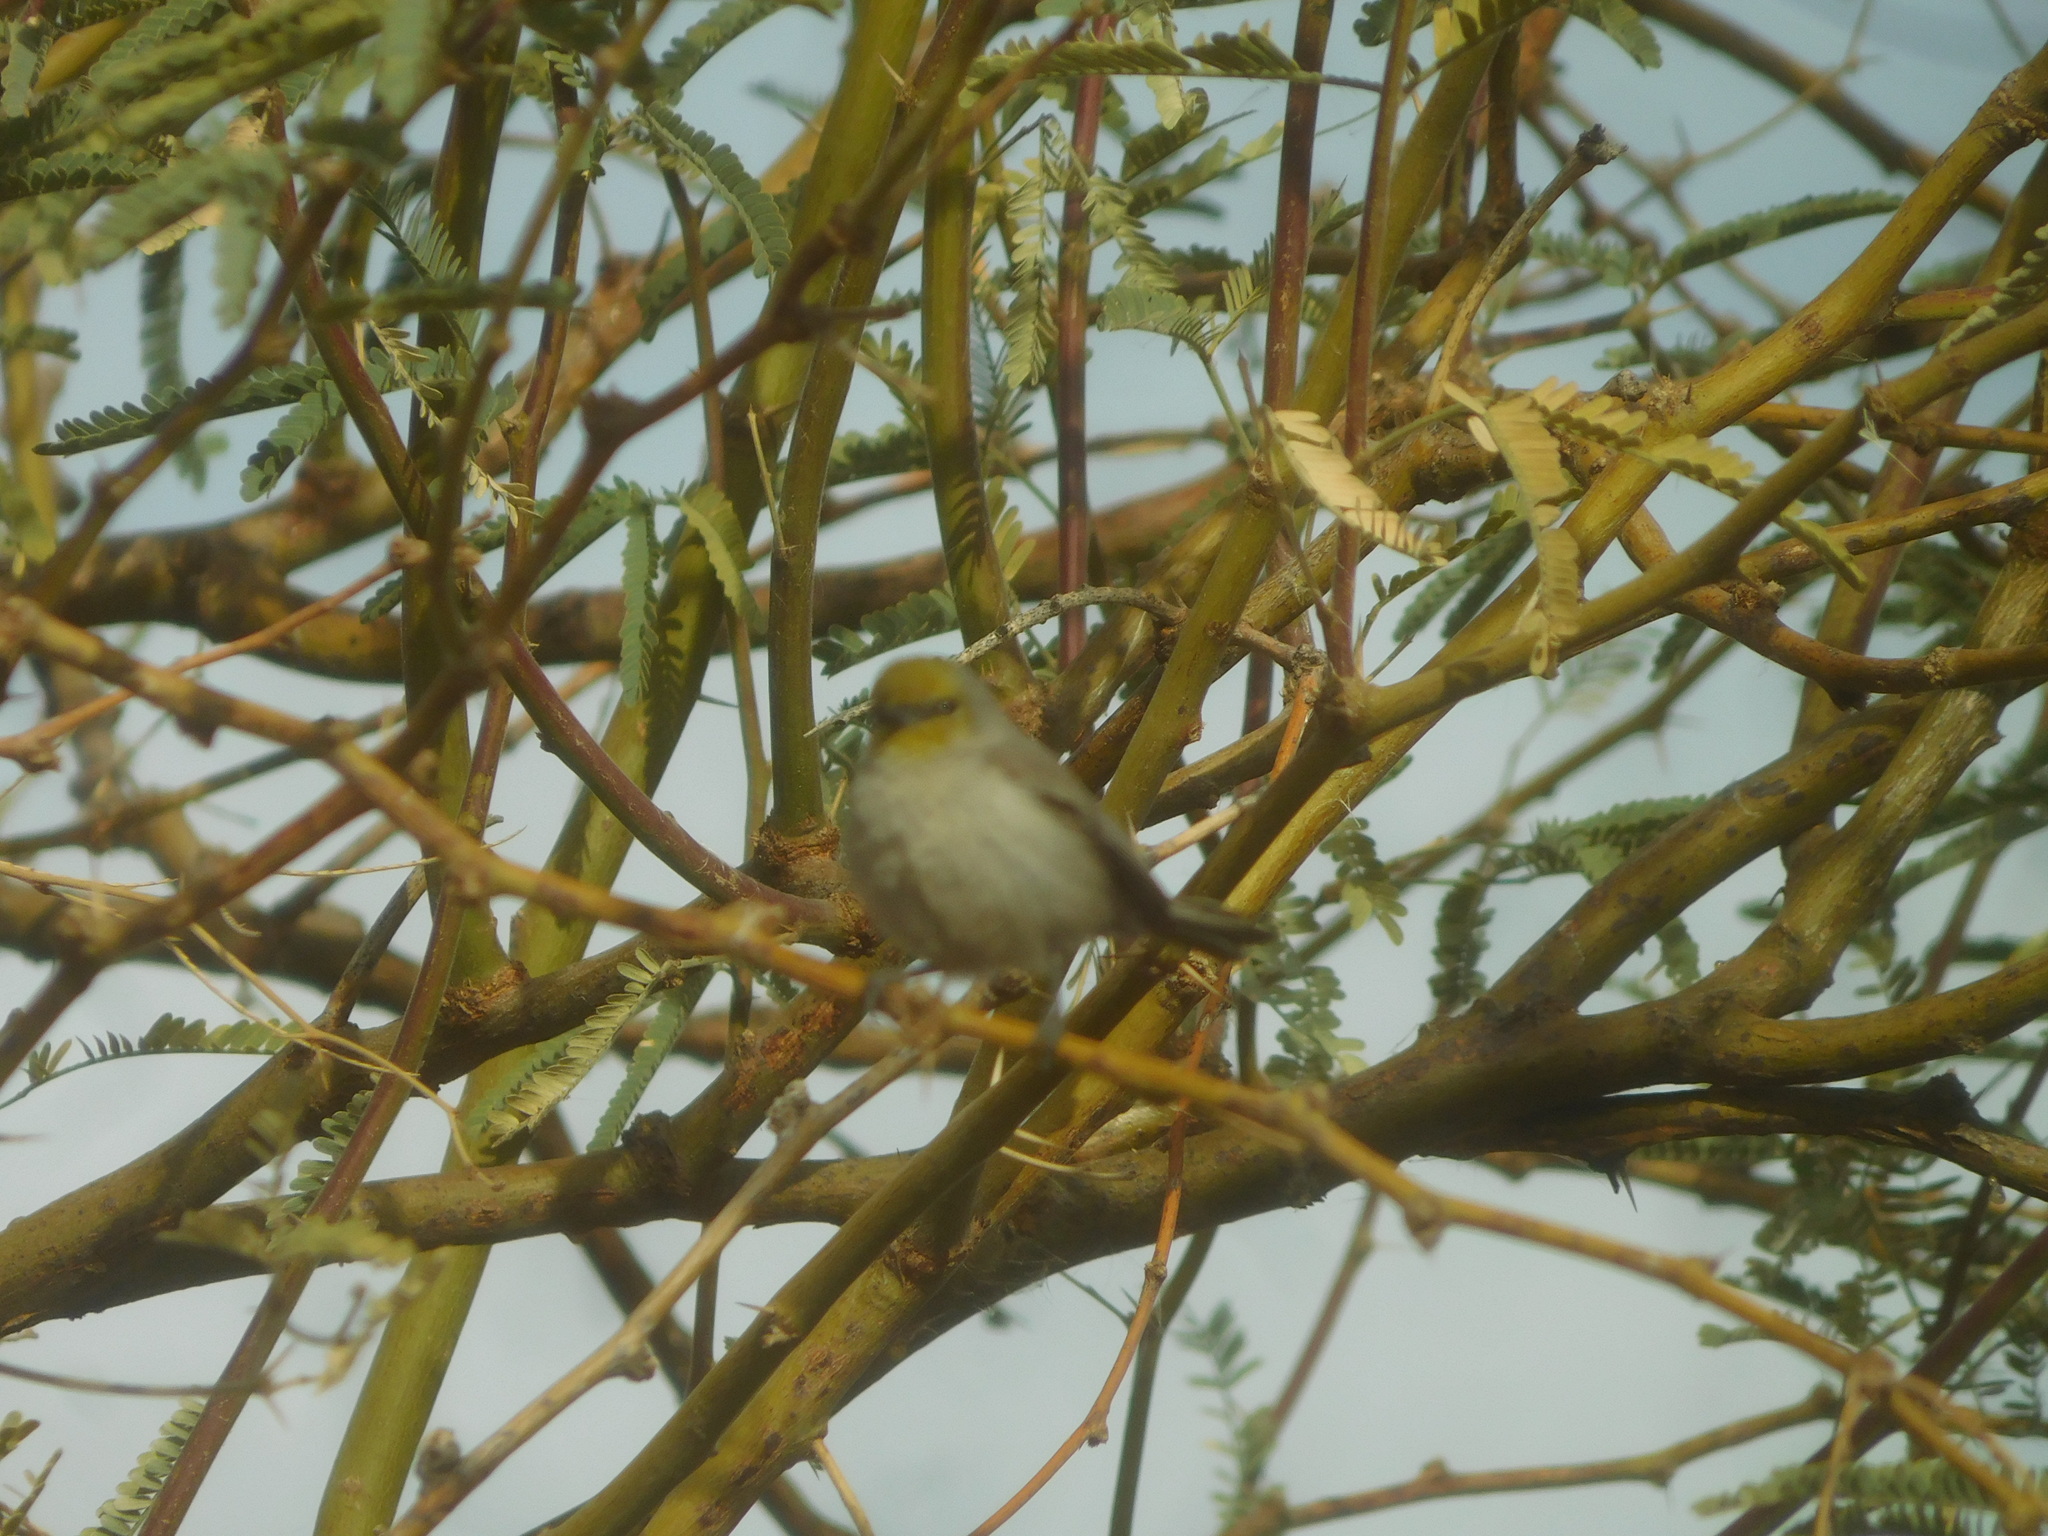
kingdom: Animalia
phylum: Chordata
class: Aves
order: Passeriformes
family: Remizidae
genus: Auriparus
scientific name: Auriparus flaviceps
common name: Verdin
